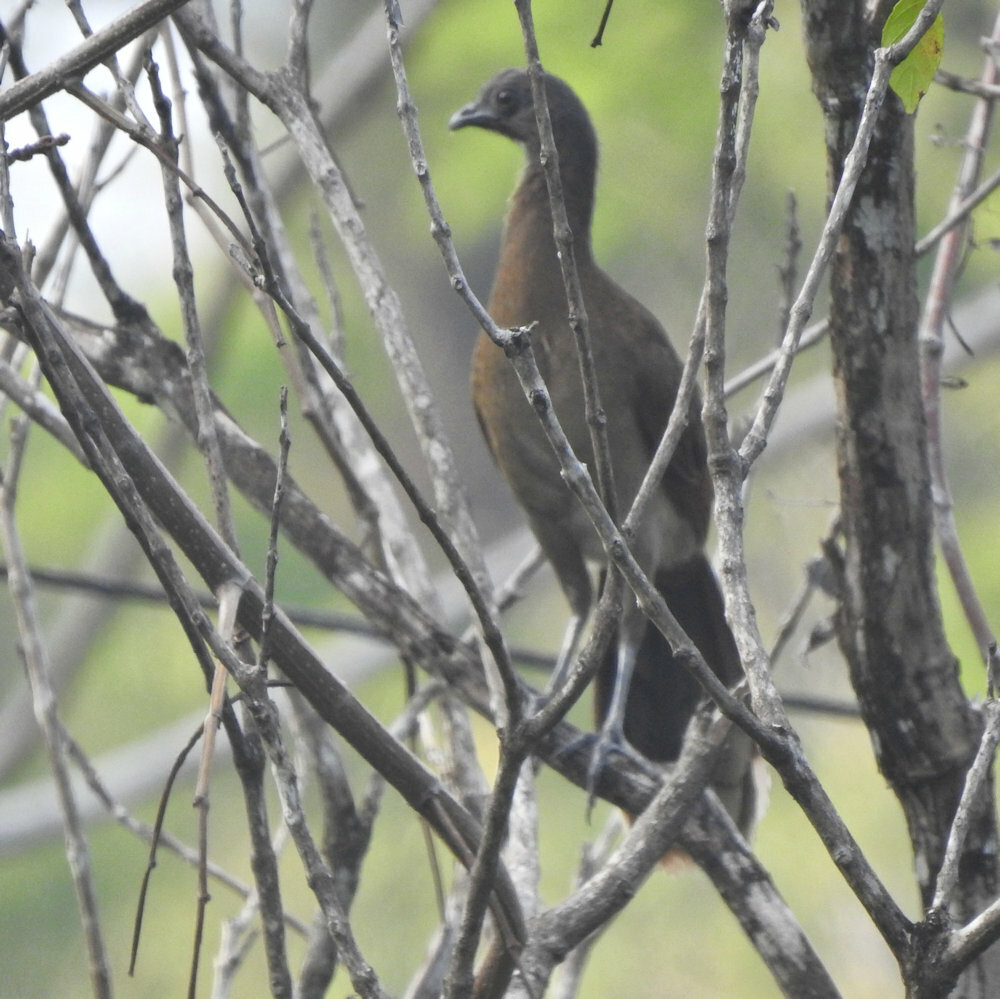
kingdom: Animalia
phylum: Chordata
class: Aves
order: Galliformes
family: Cracidae
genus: Ortalis
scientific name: Ortalis cinereiceps
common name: Grey-headed chachalaca
